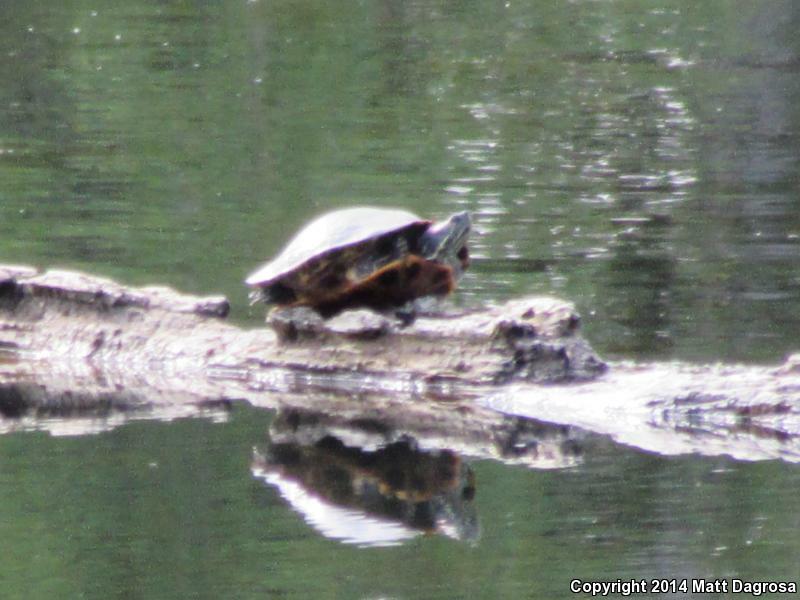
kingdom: Animalia
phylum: Chordata
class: Testudines
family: Emydidae
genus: Trachemys
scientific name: Trachemys scripta
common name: Slider
